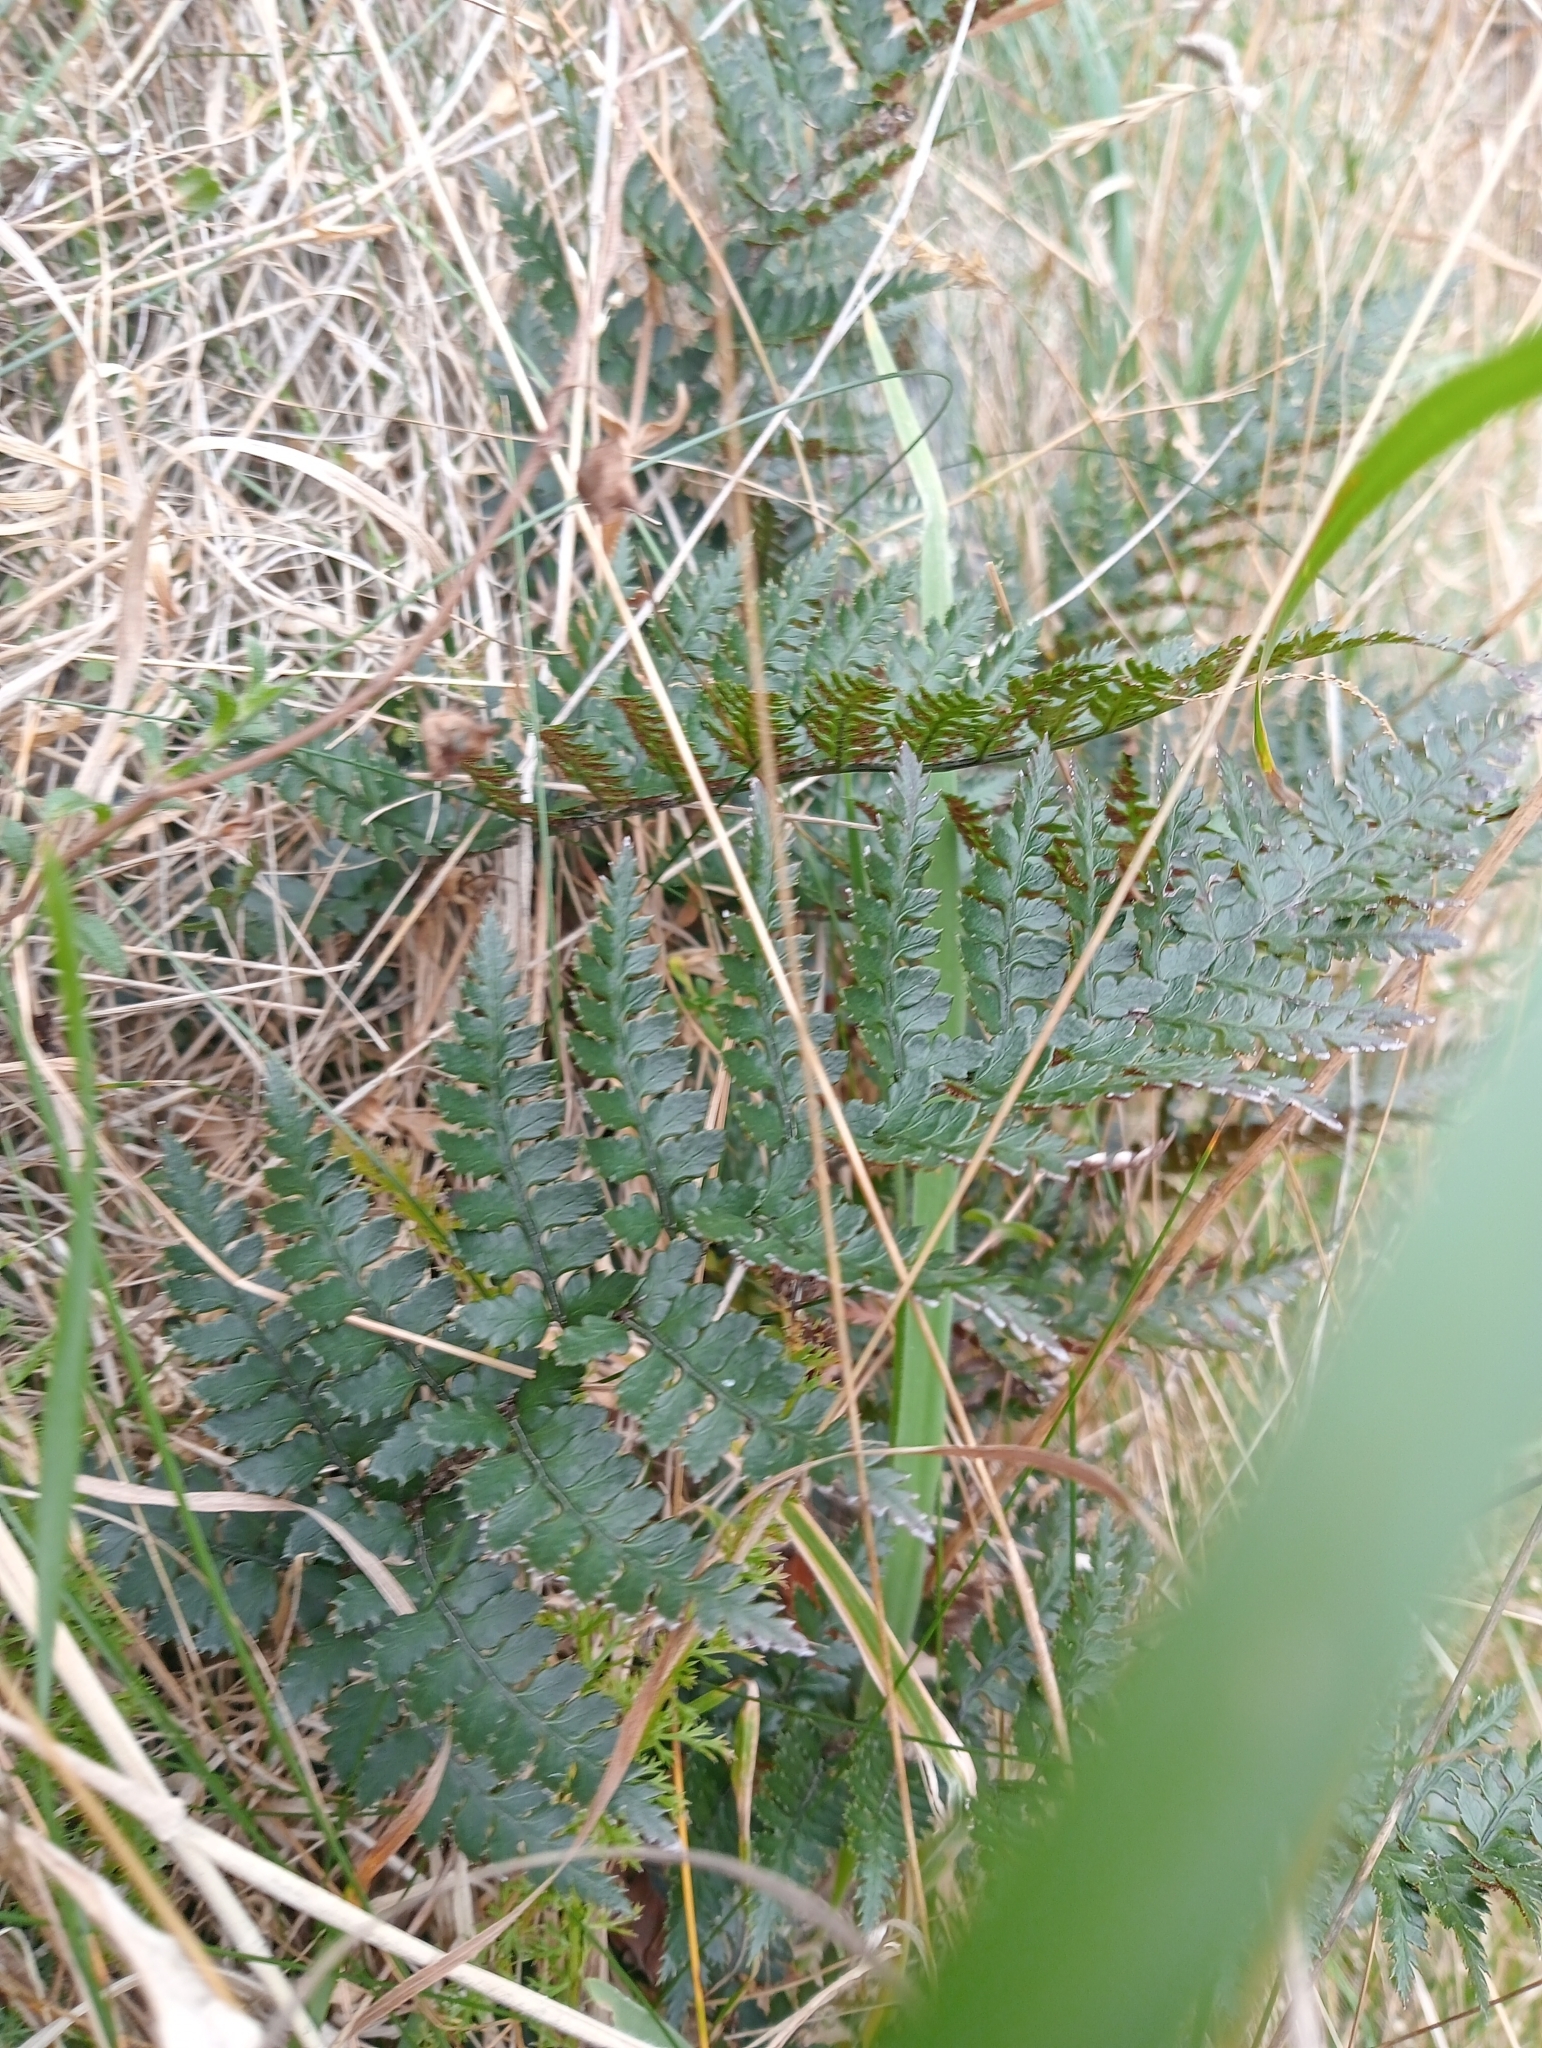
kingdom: Plantae
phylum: Tracheophyta
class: Polypodiopsida
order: Polypodiales
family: Dryopteridaceae
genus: Polystichum
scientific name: Polystichum oculatum
